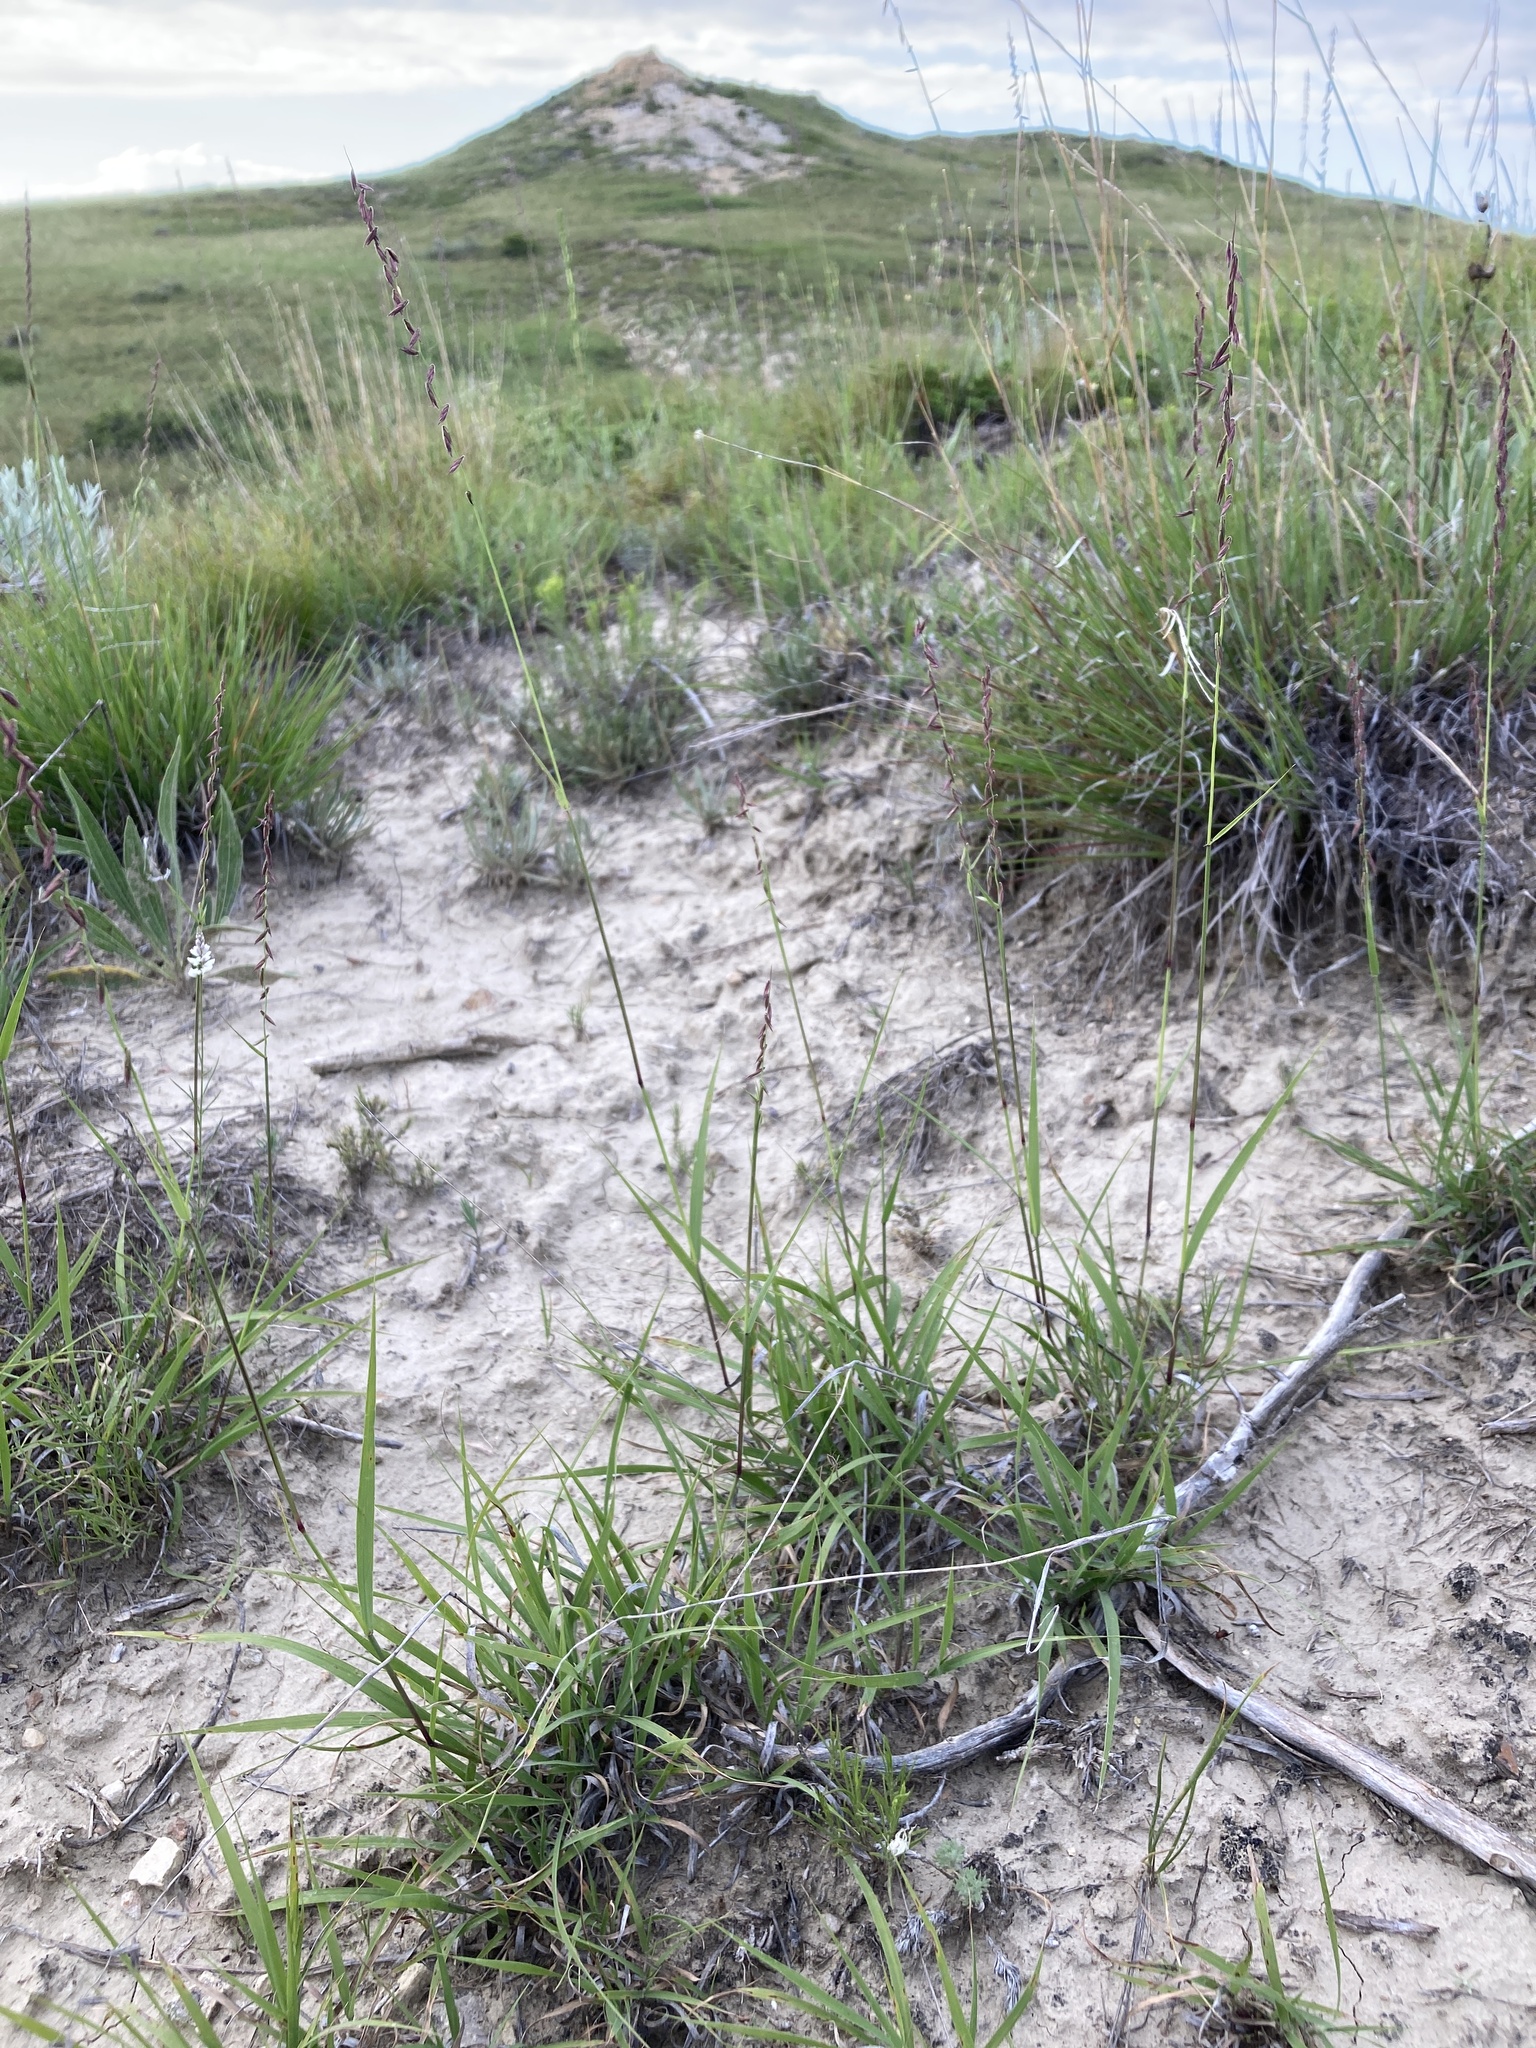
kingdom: Plantae
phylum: Tracheophyta
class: Liliopsida
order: Poales
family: Poaceae
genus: Bouteloua
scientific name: Bouteloua curtipendula
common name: Side-oats grama
